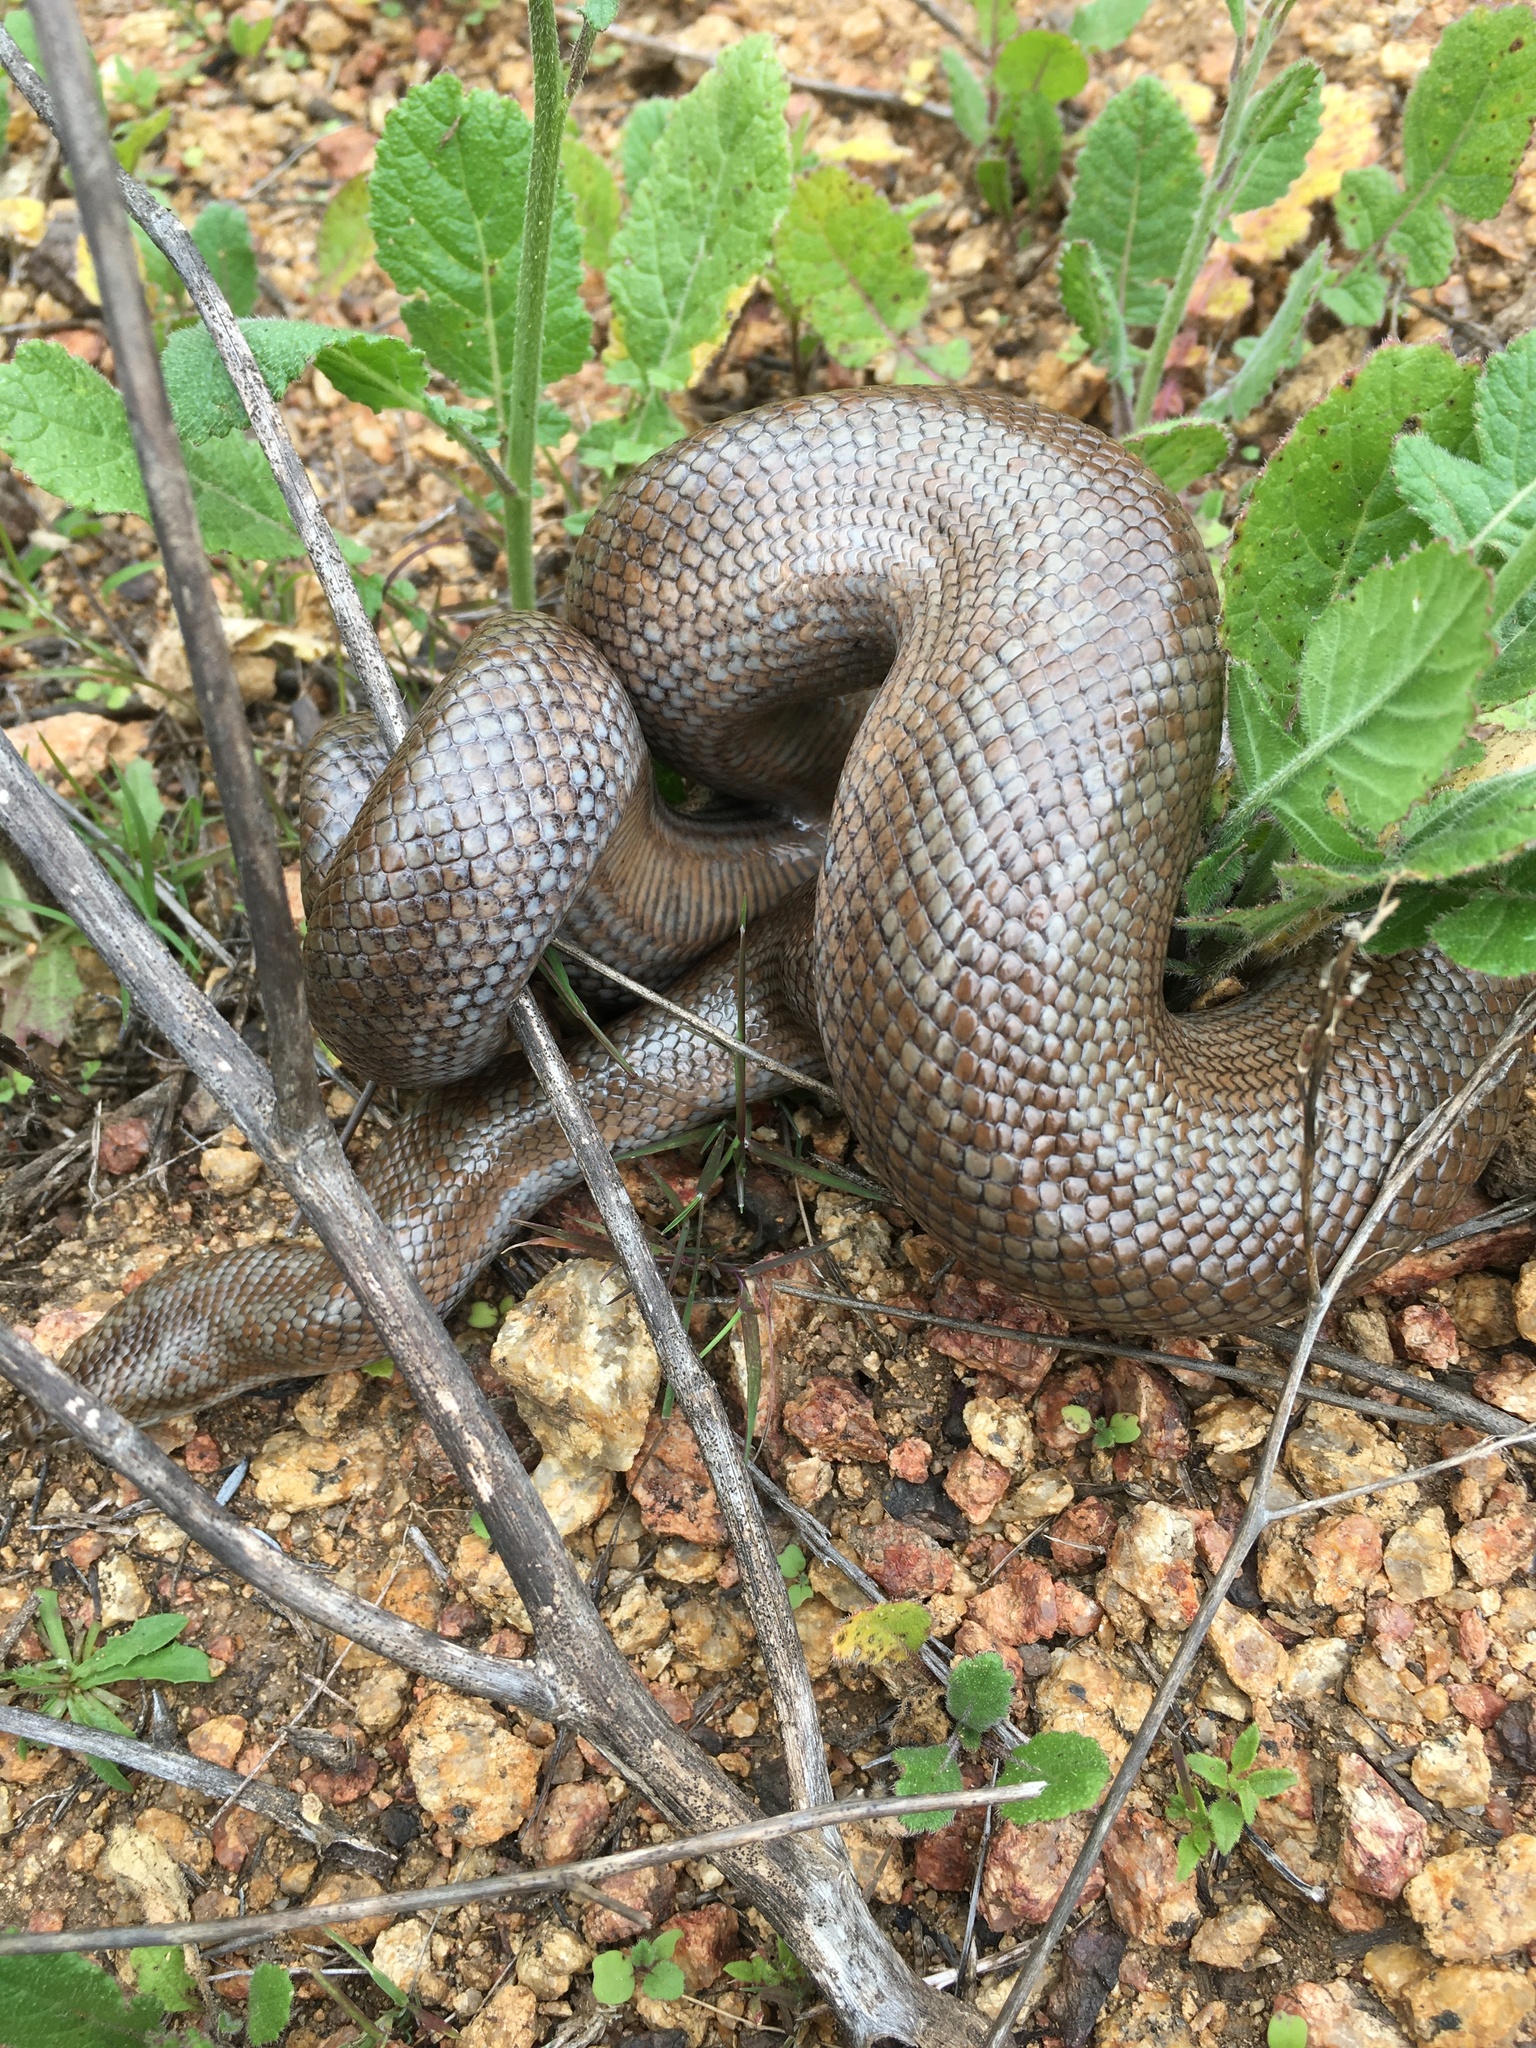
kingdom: Animalia
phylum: Chordata
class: Squamata
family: Boidae
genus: Lichanura
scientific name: Lichanura orcutti
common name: Northern three-lined boa
